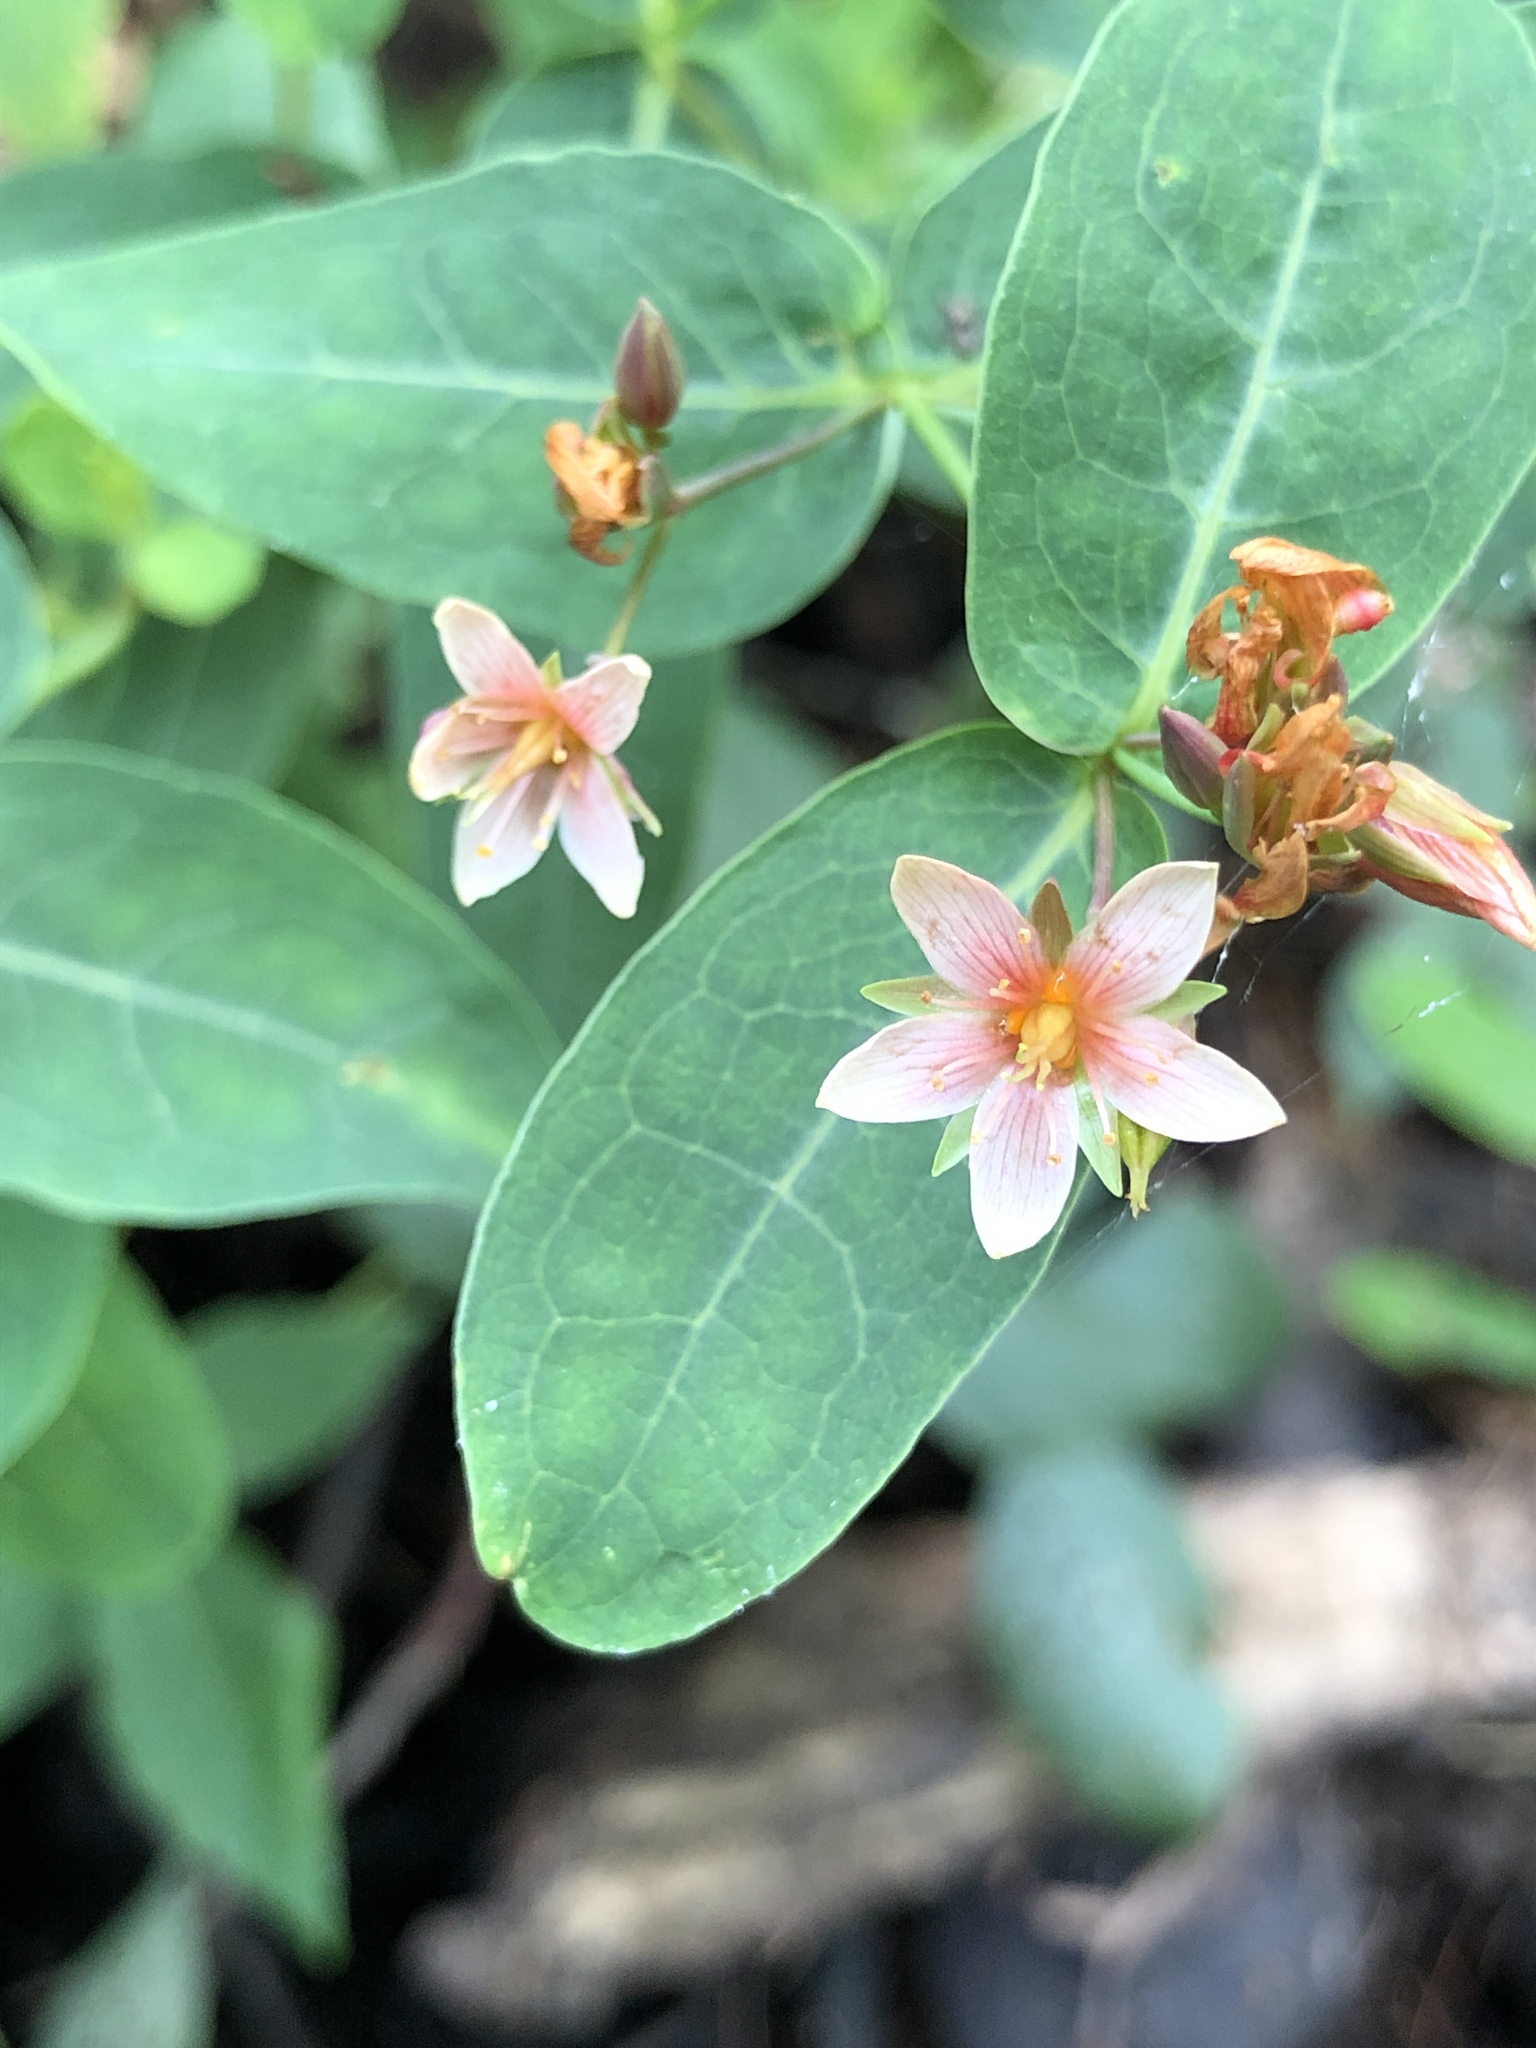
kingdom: Plantae
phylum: Tracheophyta
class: Magnoliopsida
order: Malpighiales
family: Hypericaceae
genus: Triadenum
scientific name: Triadenum virginicum
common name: Marsh st. john's-wort
